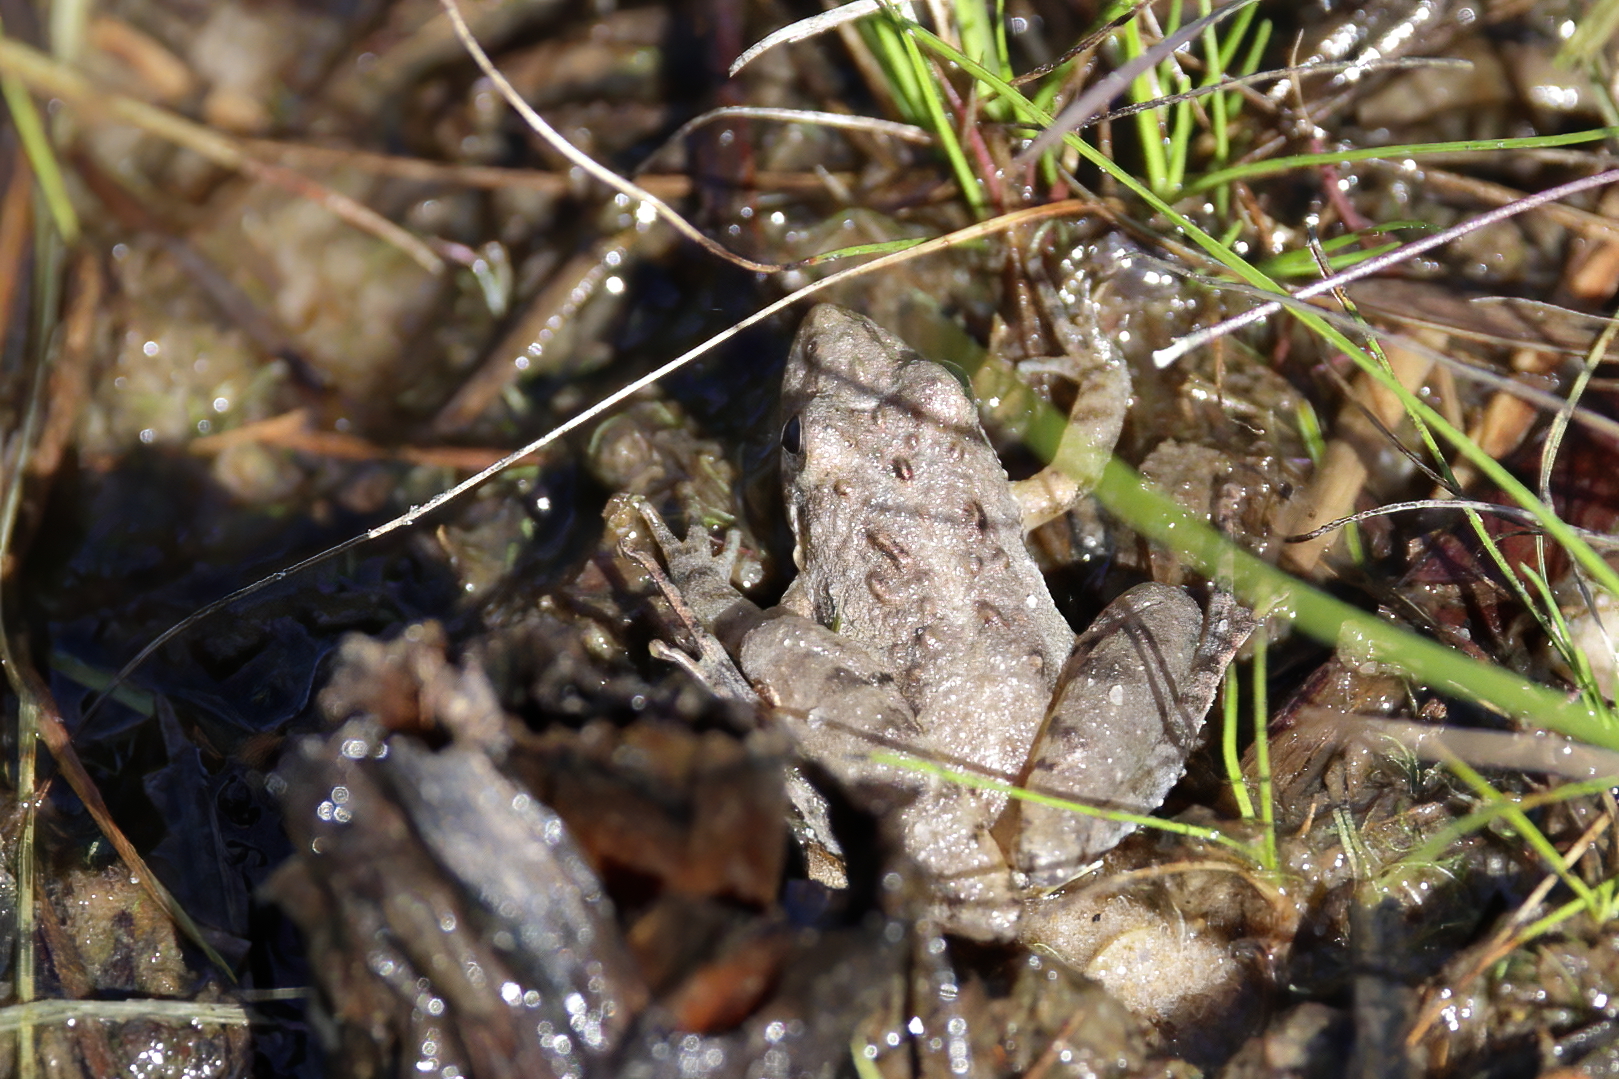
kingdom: Animalia
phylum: Chordata
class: Amphibia
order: Anura
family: Hylidae
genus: Acris
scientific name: Acris gryllus
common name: Southern cricket frog
